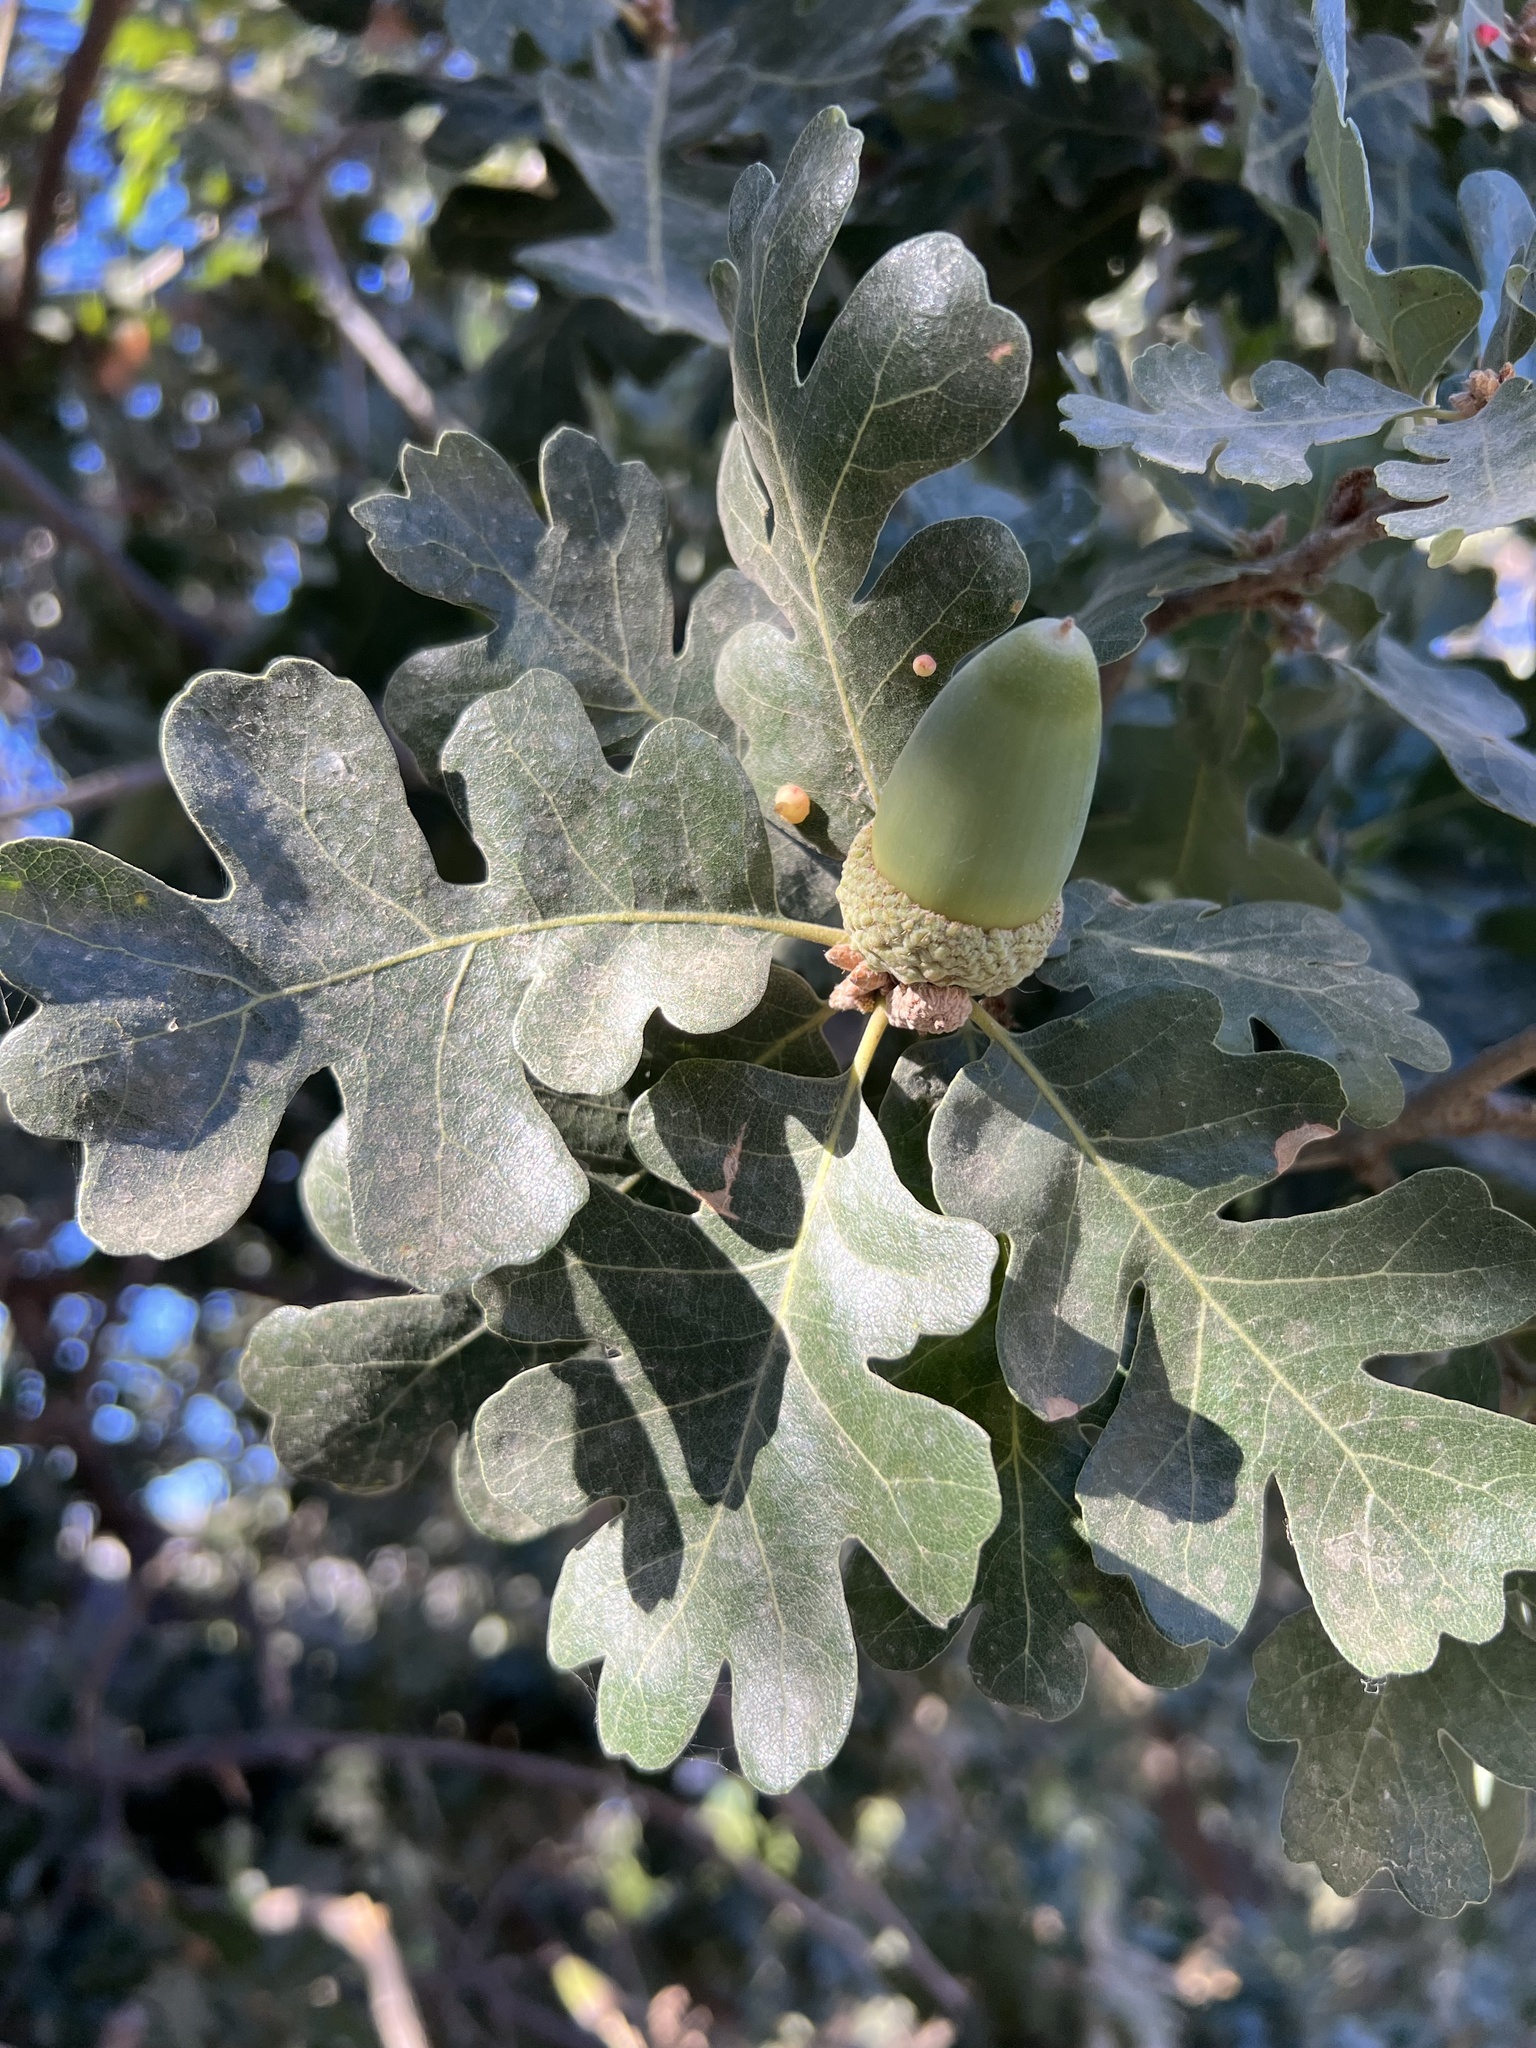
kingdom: Plantae
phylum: Tracheophyta
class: Magnoliopsida
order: Fagales
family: Fagaceae
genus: Quercus
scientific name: Quercus lobata
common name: Valley oak
